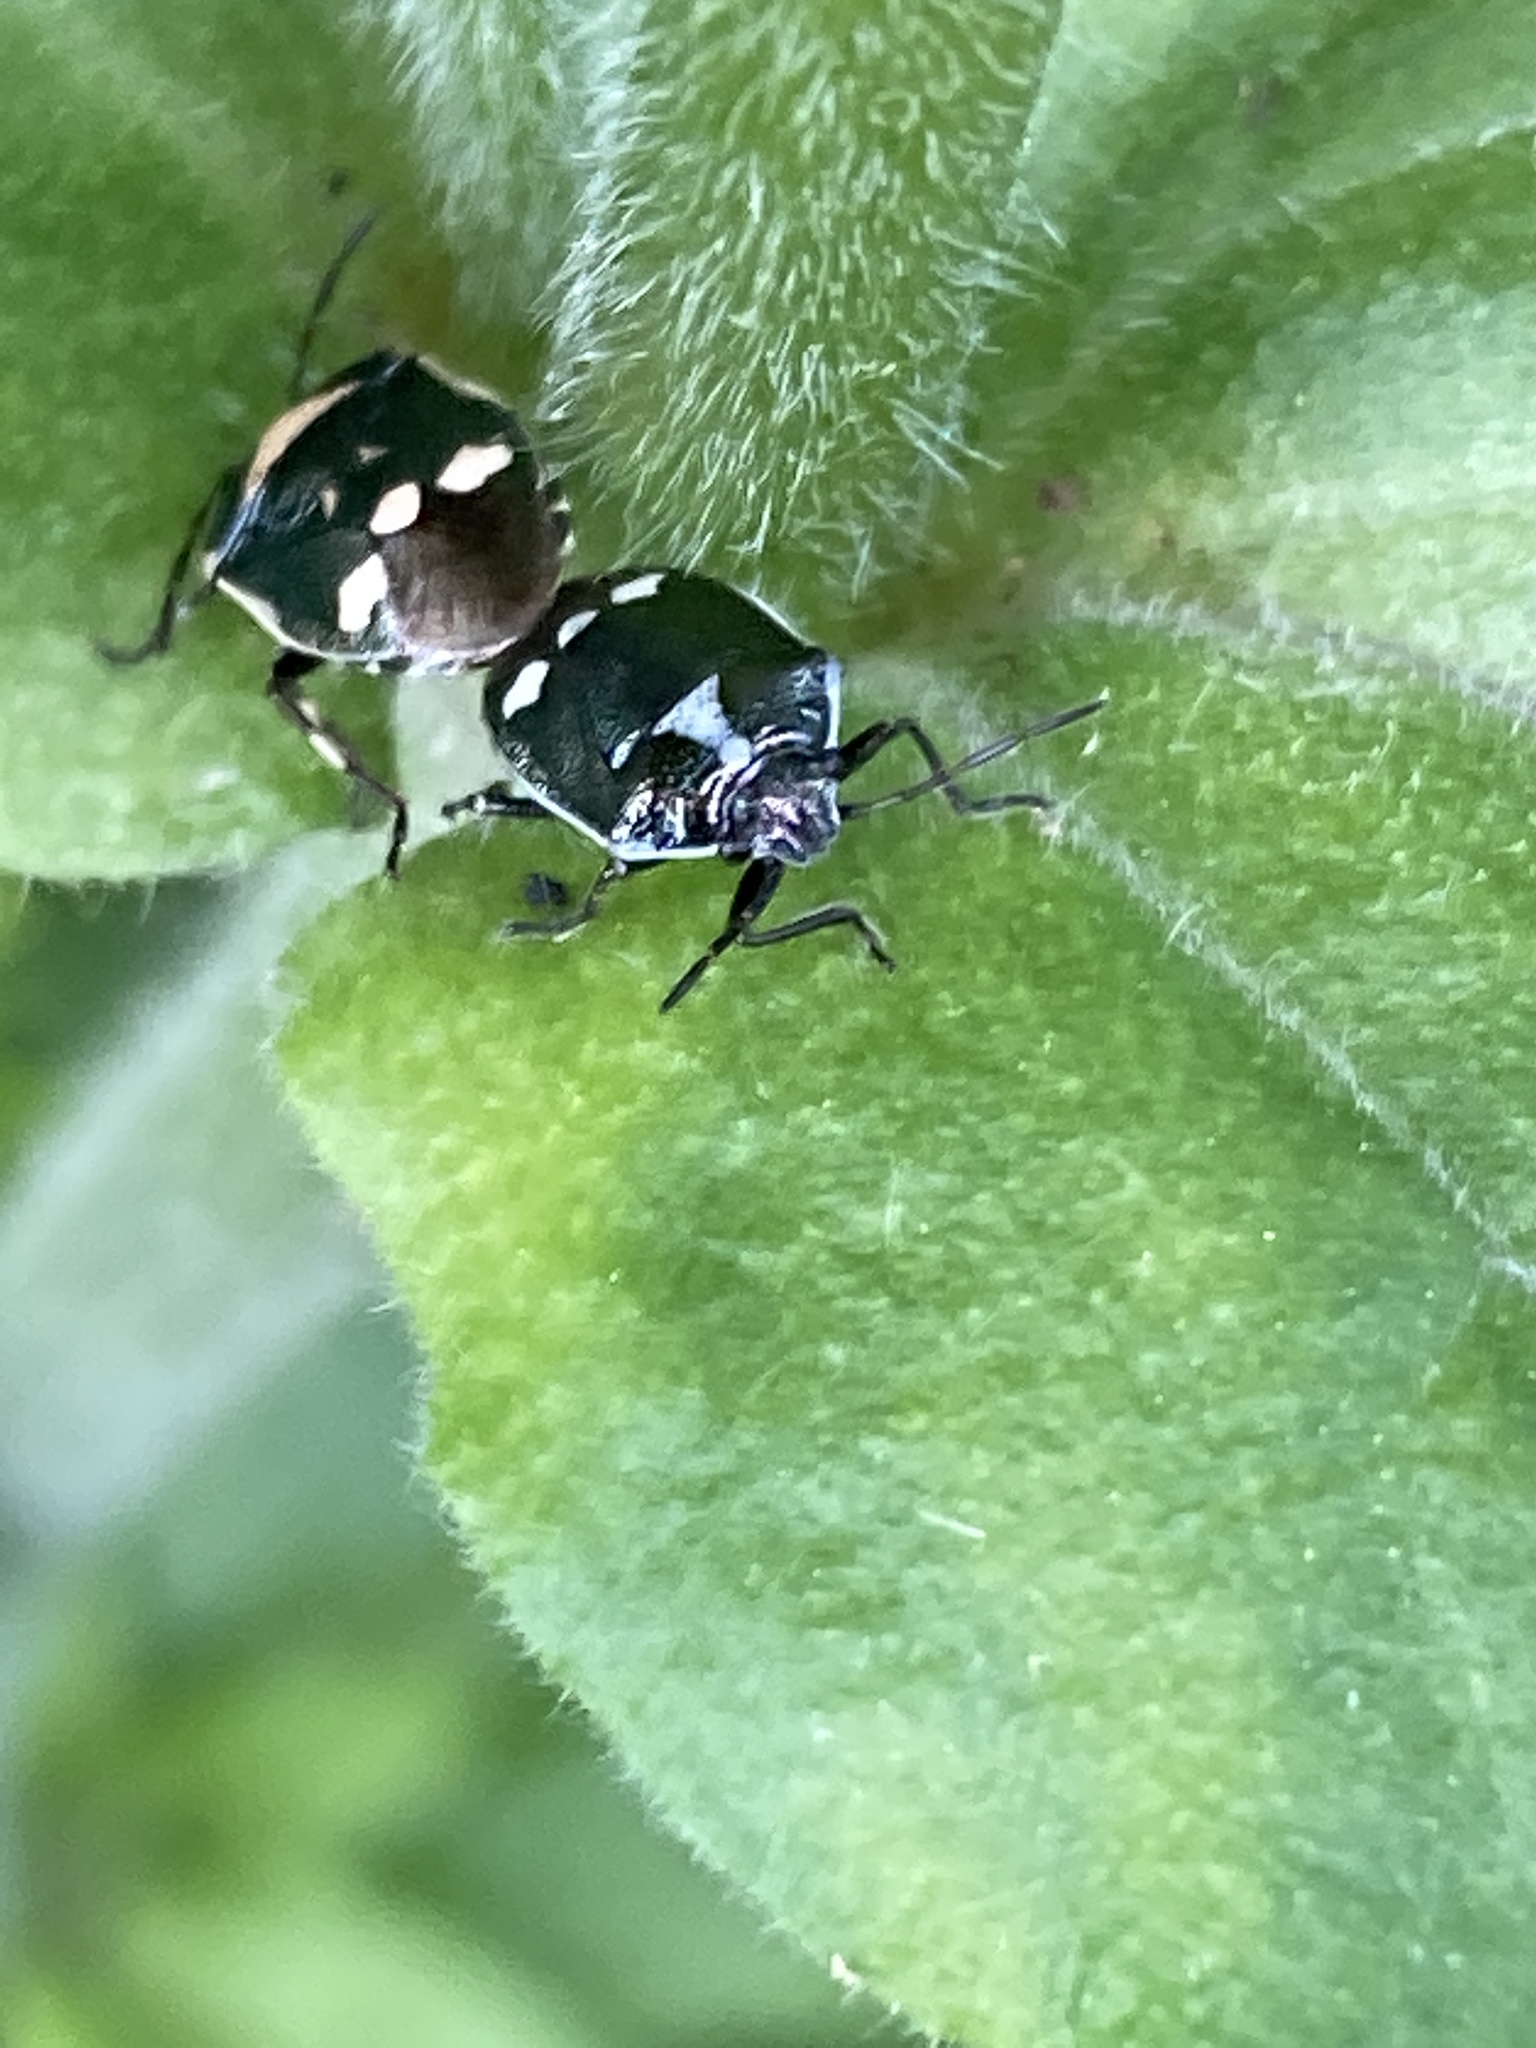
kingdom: Animalia
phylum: Arthropoda
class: Insecta
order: Hemiptera
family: Pentatomidae
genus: Eurydema
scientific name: Eurydema oleracea
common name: Cabbage bug
